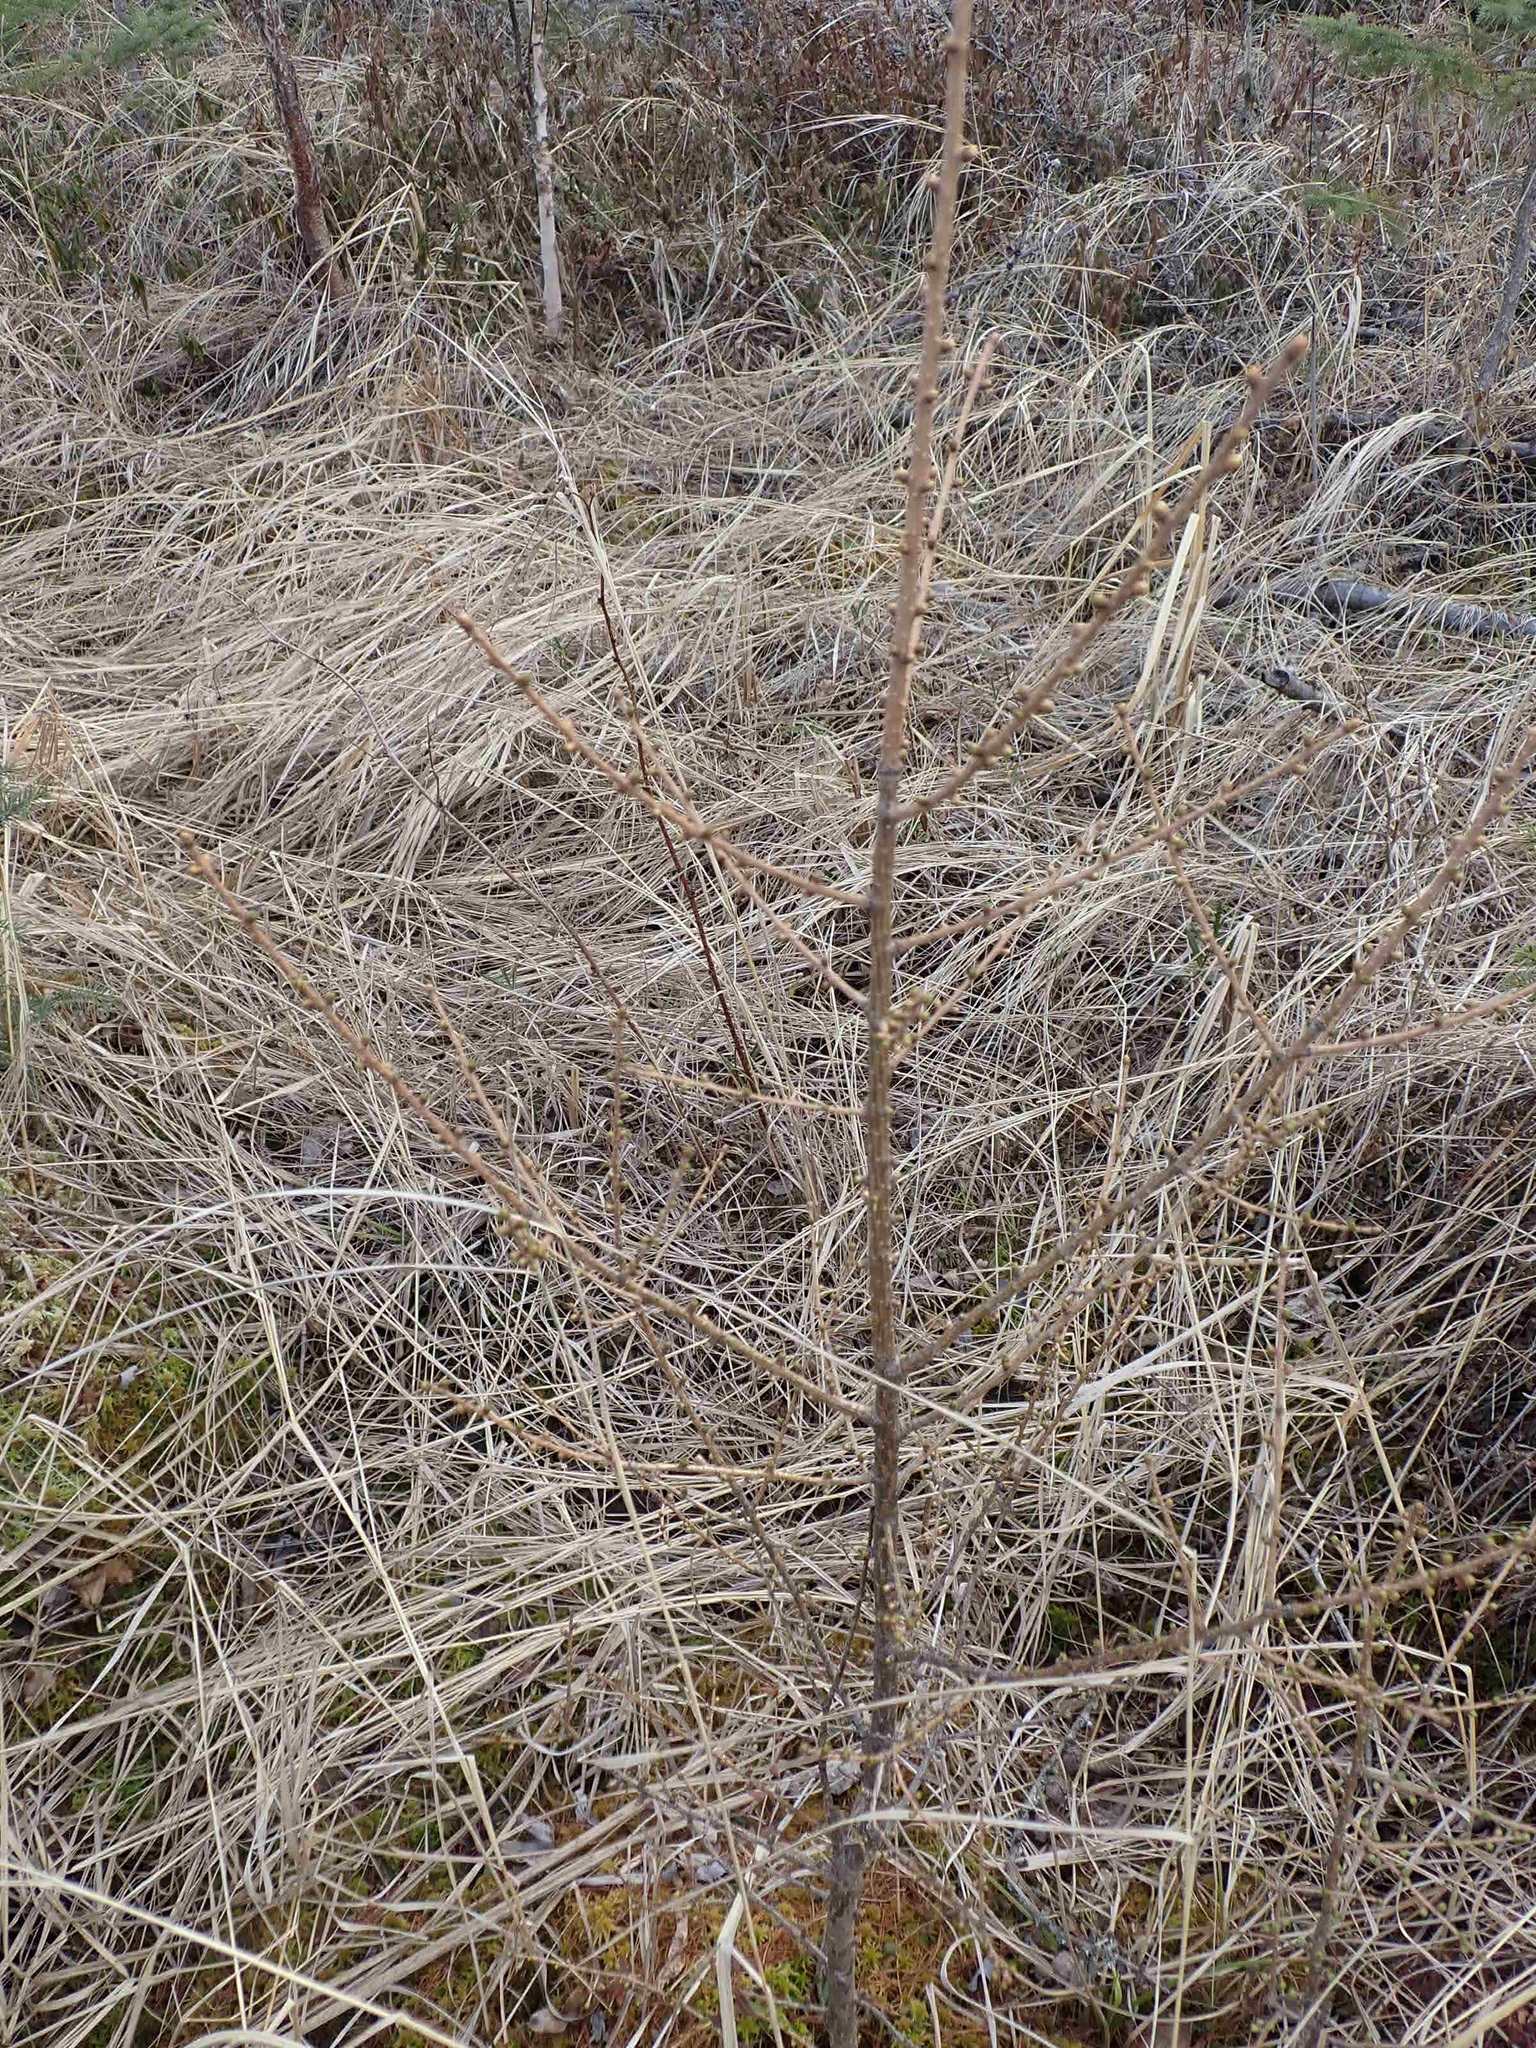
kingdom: Plantae
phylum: Tracheophyta
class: Pinopsida
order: Pinales
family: Pinaceae
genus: Larix
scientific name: Larix laricina
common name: American larch
